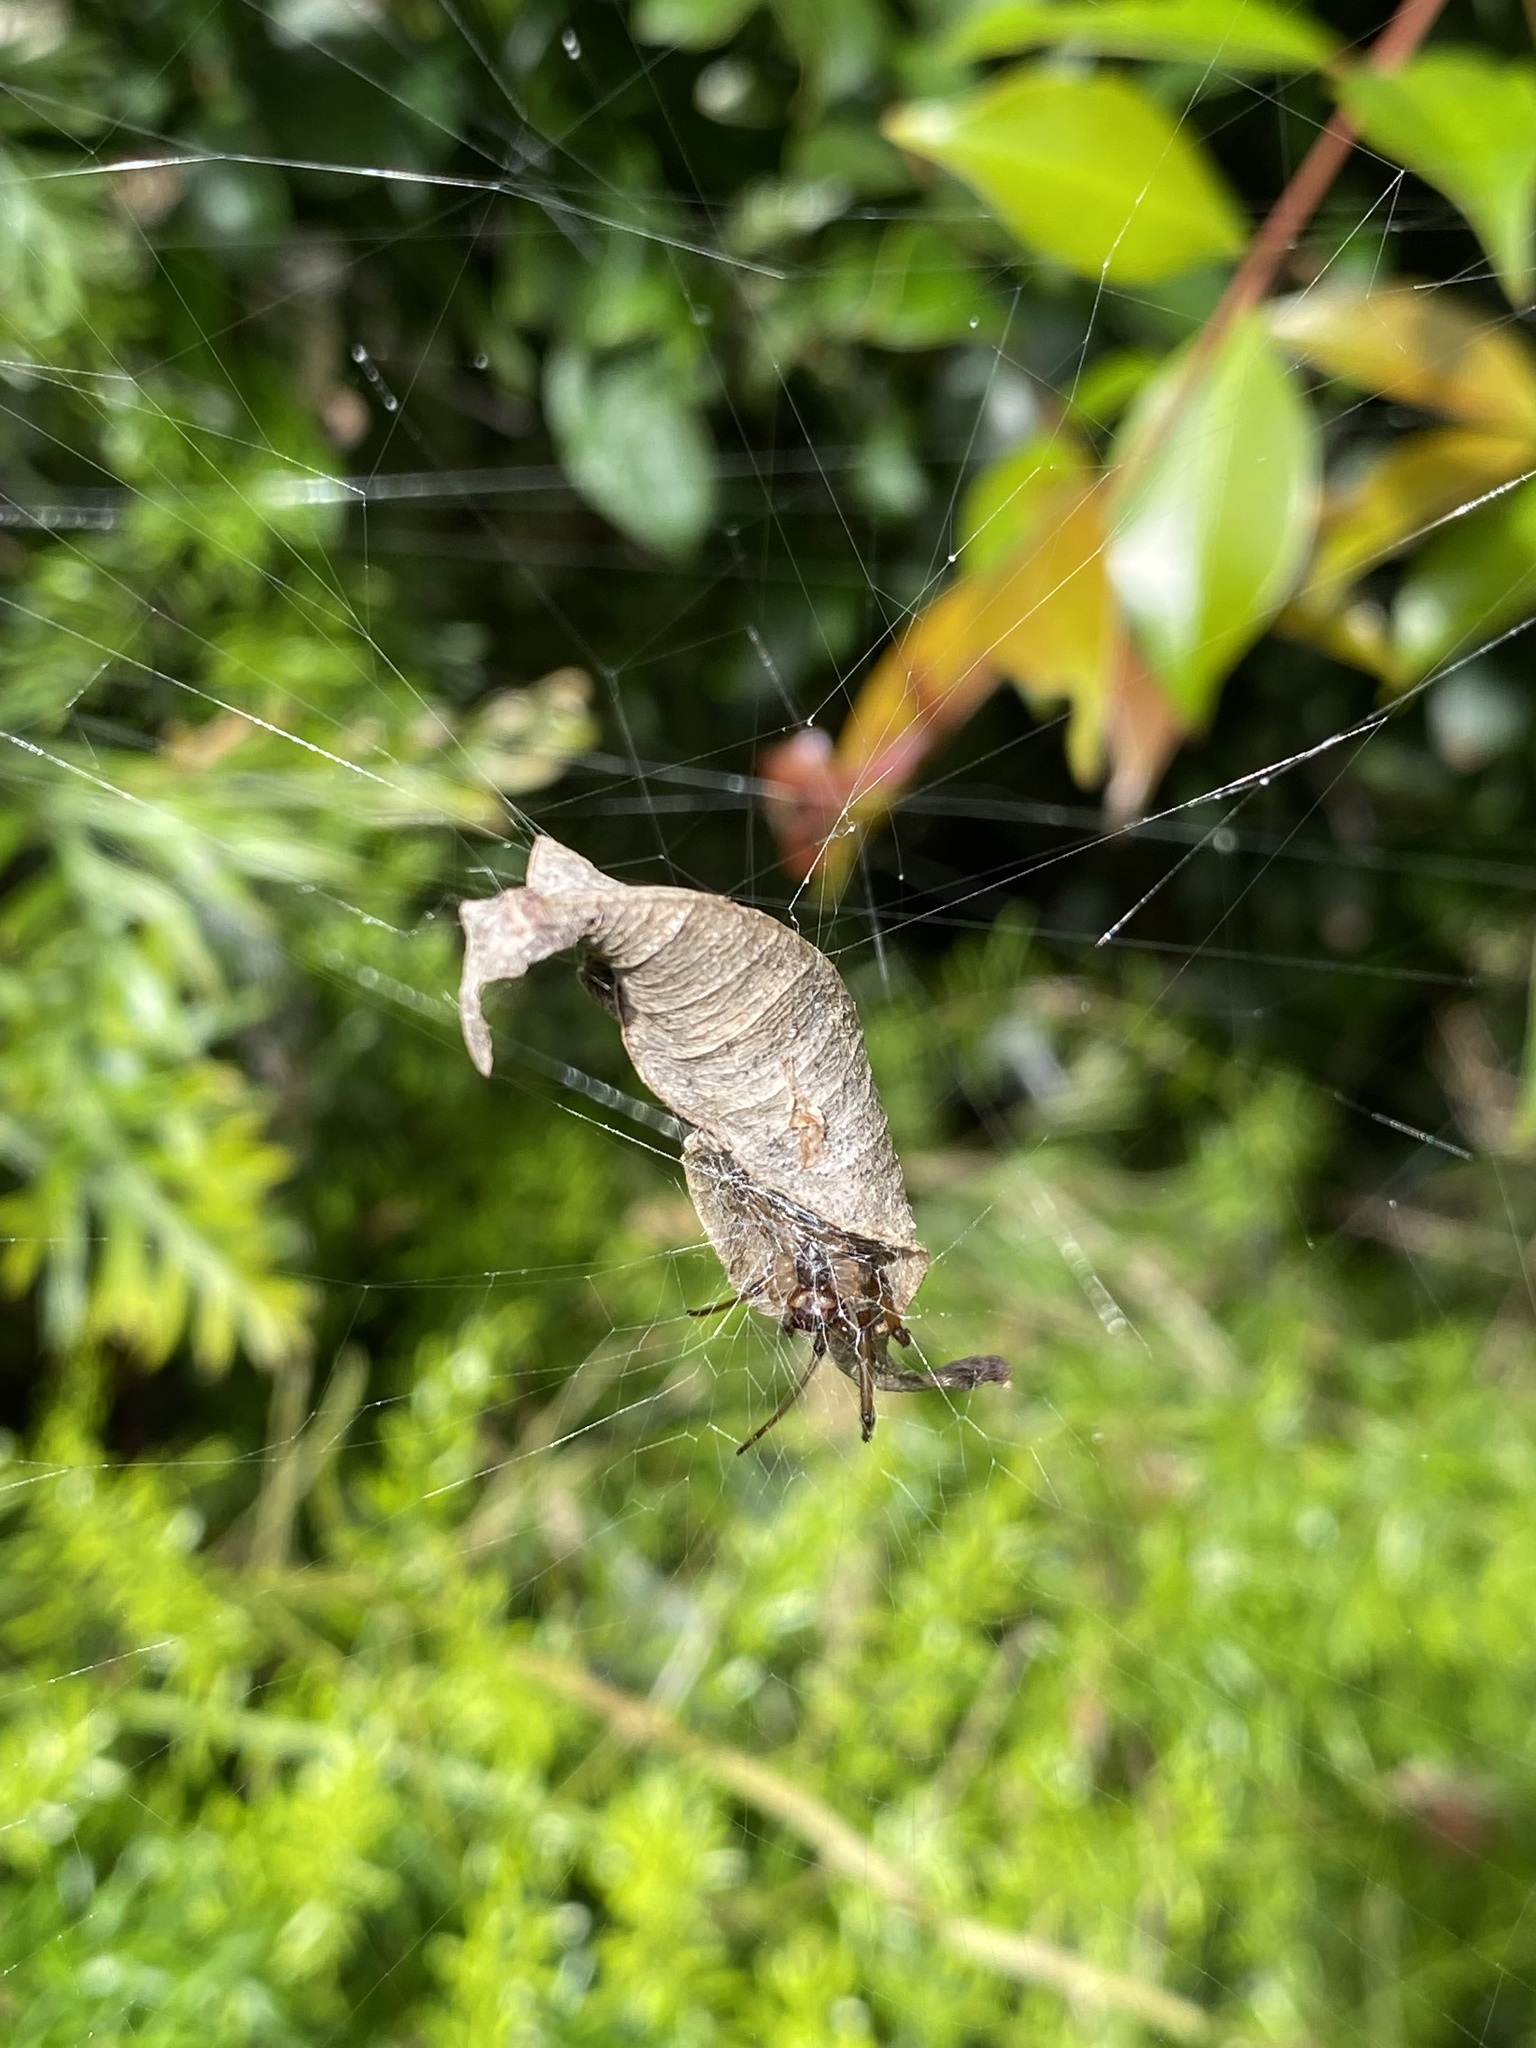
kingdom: Animalia
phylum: Arthropoda
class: Arachnida
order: Araneae
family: Araneidae
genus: Phonognatha
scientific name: Phonognatha graeffei
